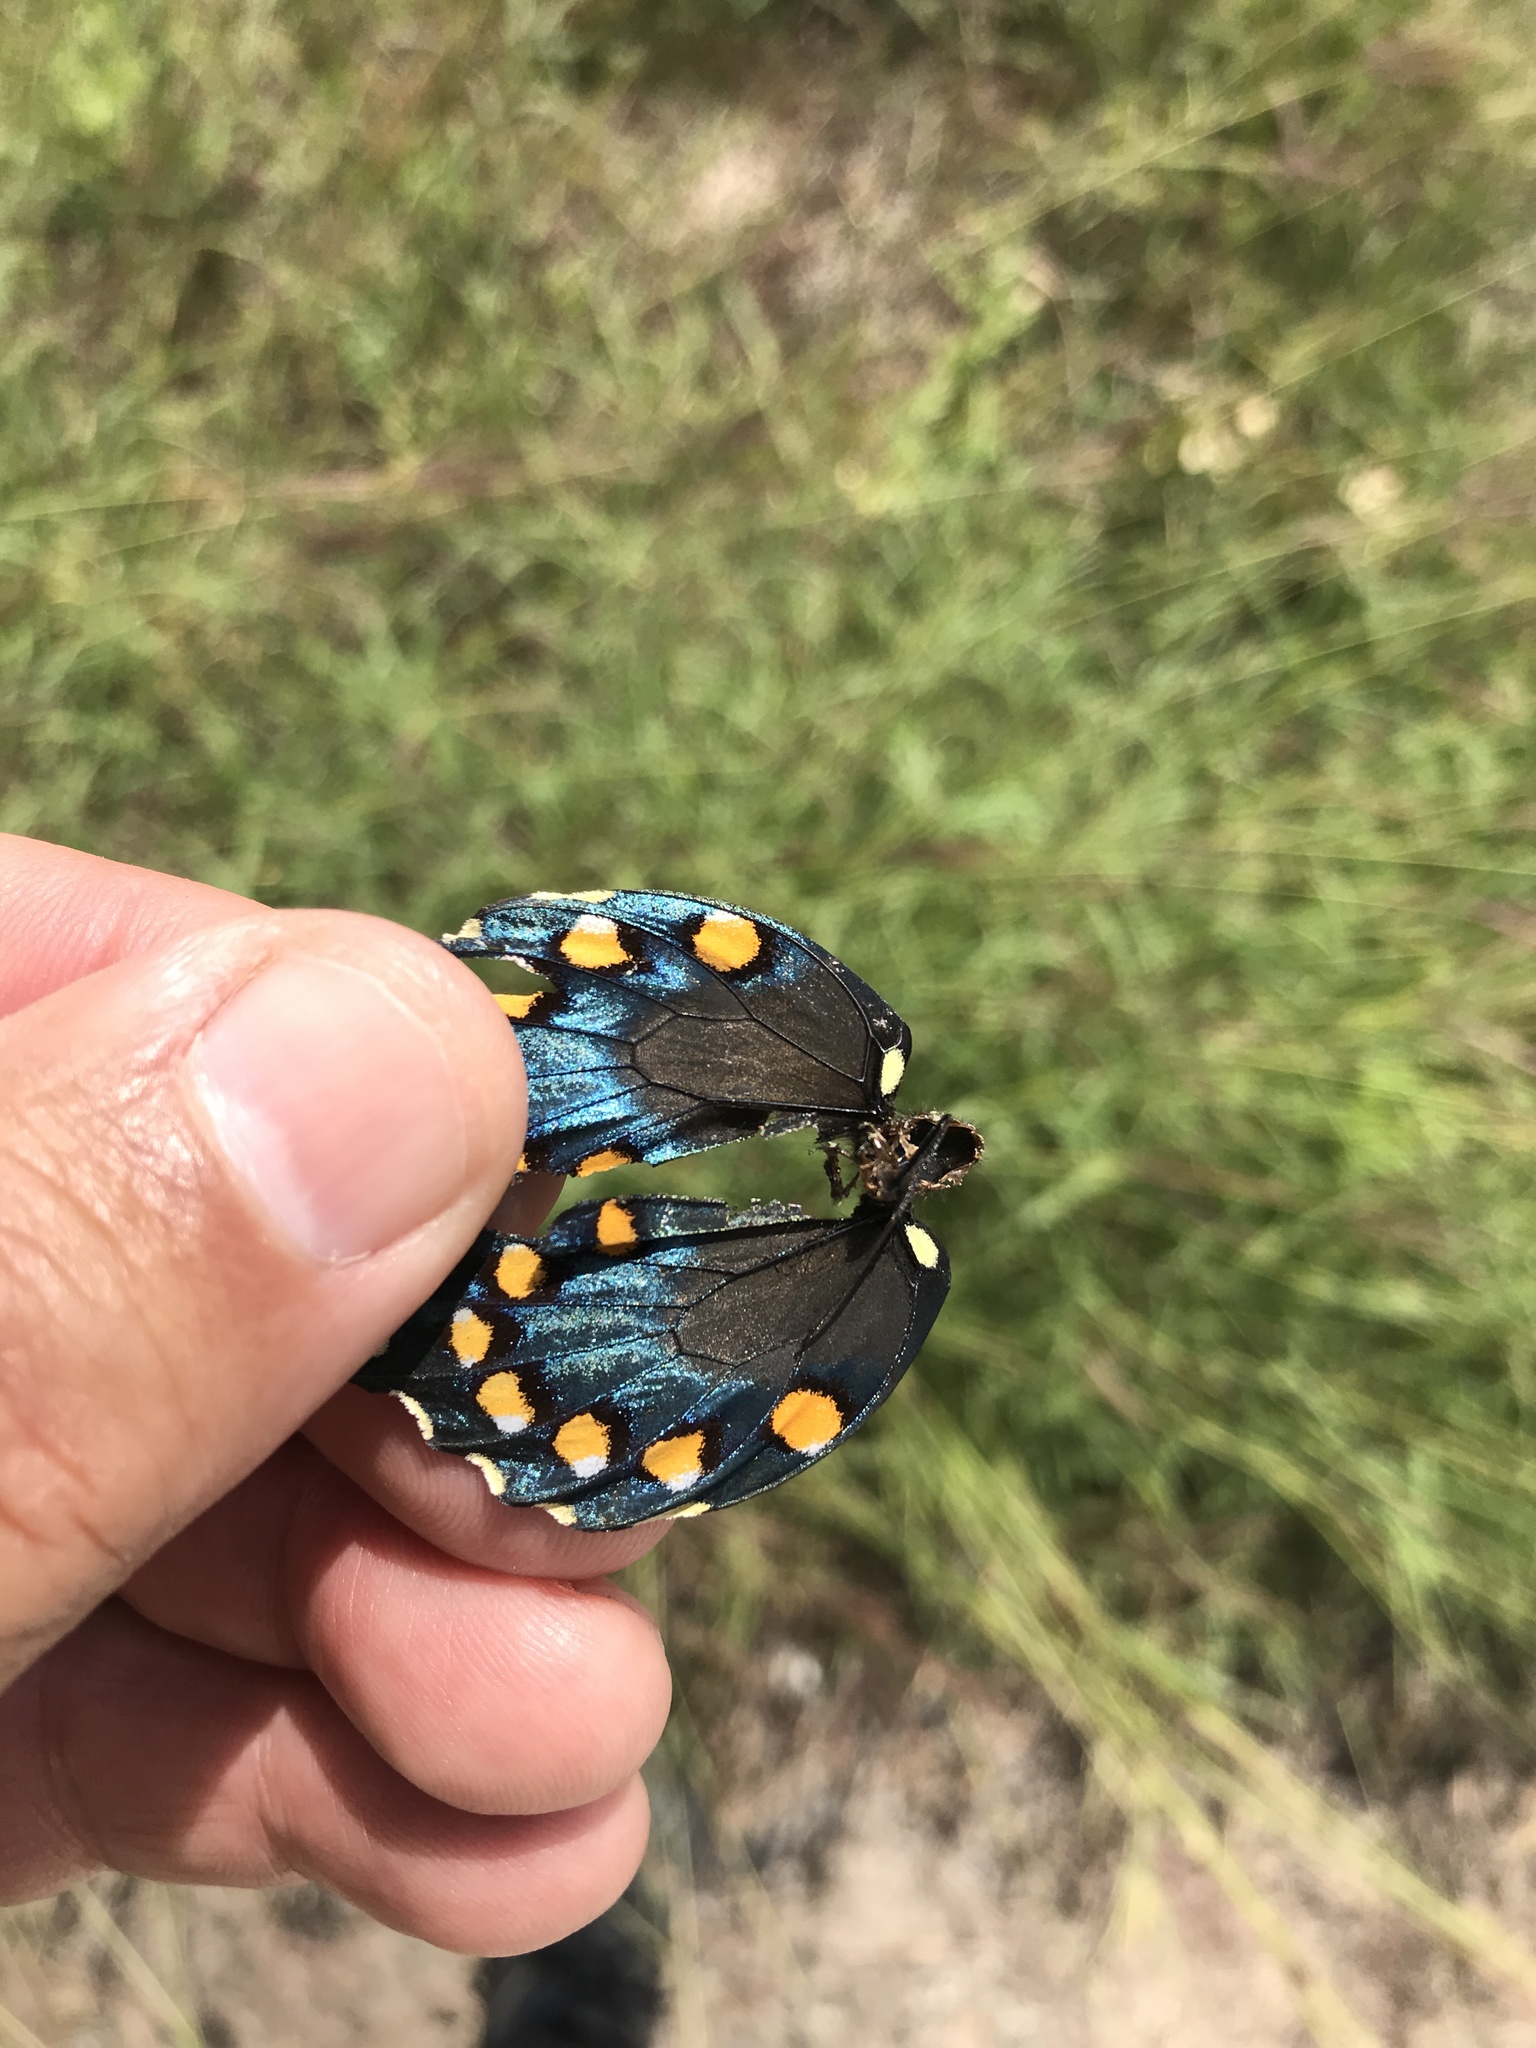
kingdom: Animalia
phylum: Arthropoda
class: Insecta
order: Lepidoptera
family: Papilionidae
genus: Battus
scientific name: Battus philenor
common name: Pipevine swallowtail
